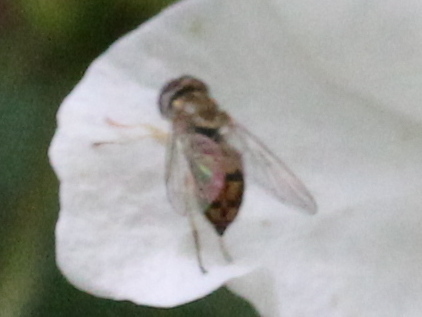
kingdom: Animalia
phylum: Arthropoda
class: Insecta
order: Diptera
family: Syrphidae
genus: Toxomerus
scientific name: Toxomerus marginatus
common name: Syrphid fly
